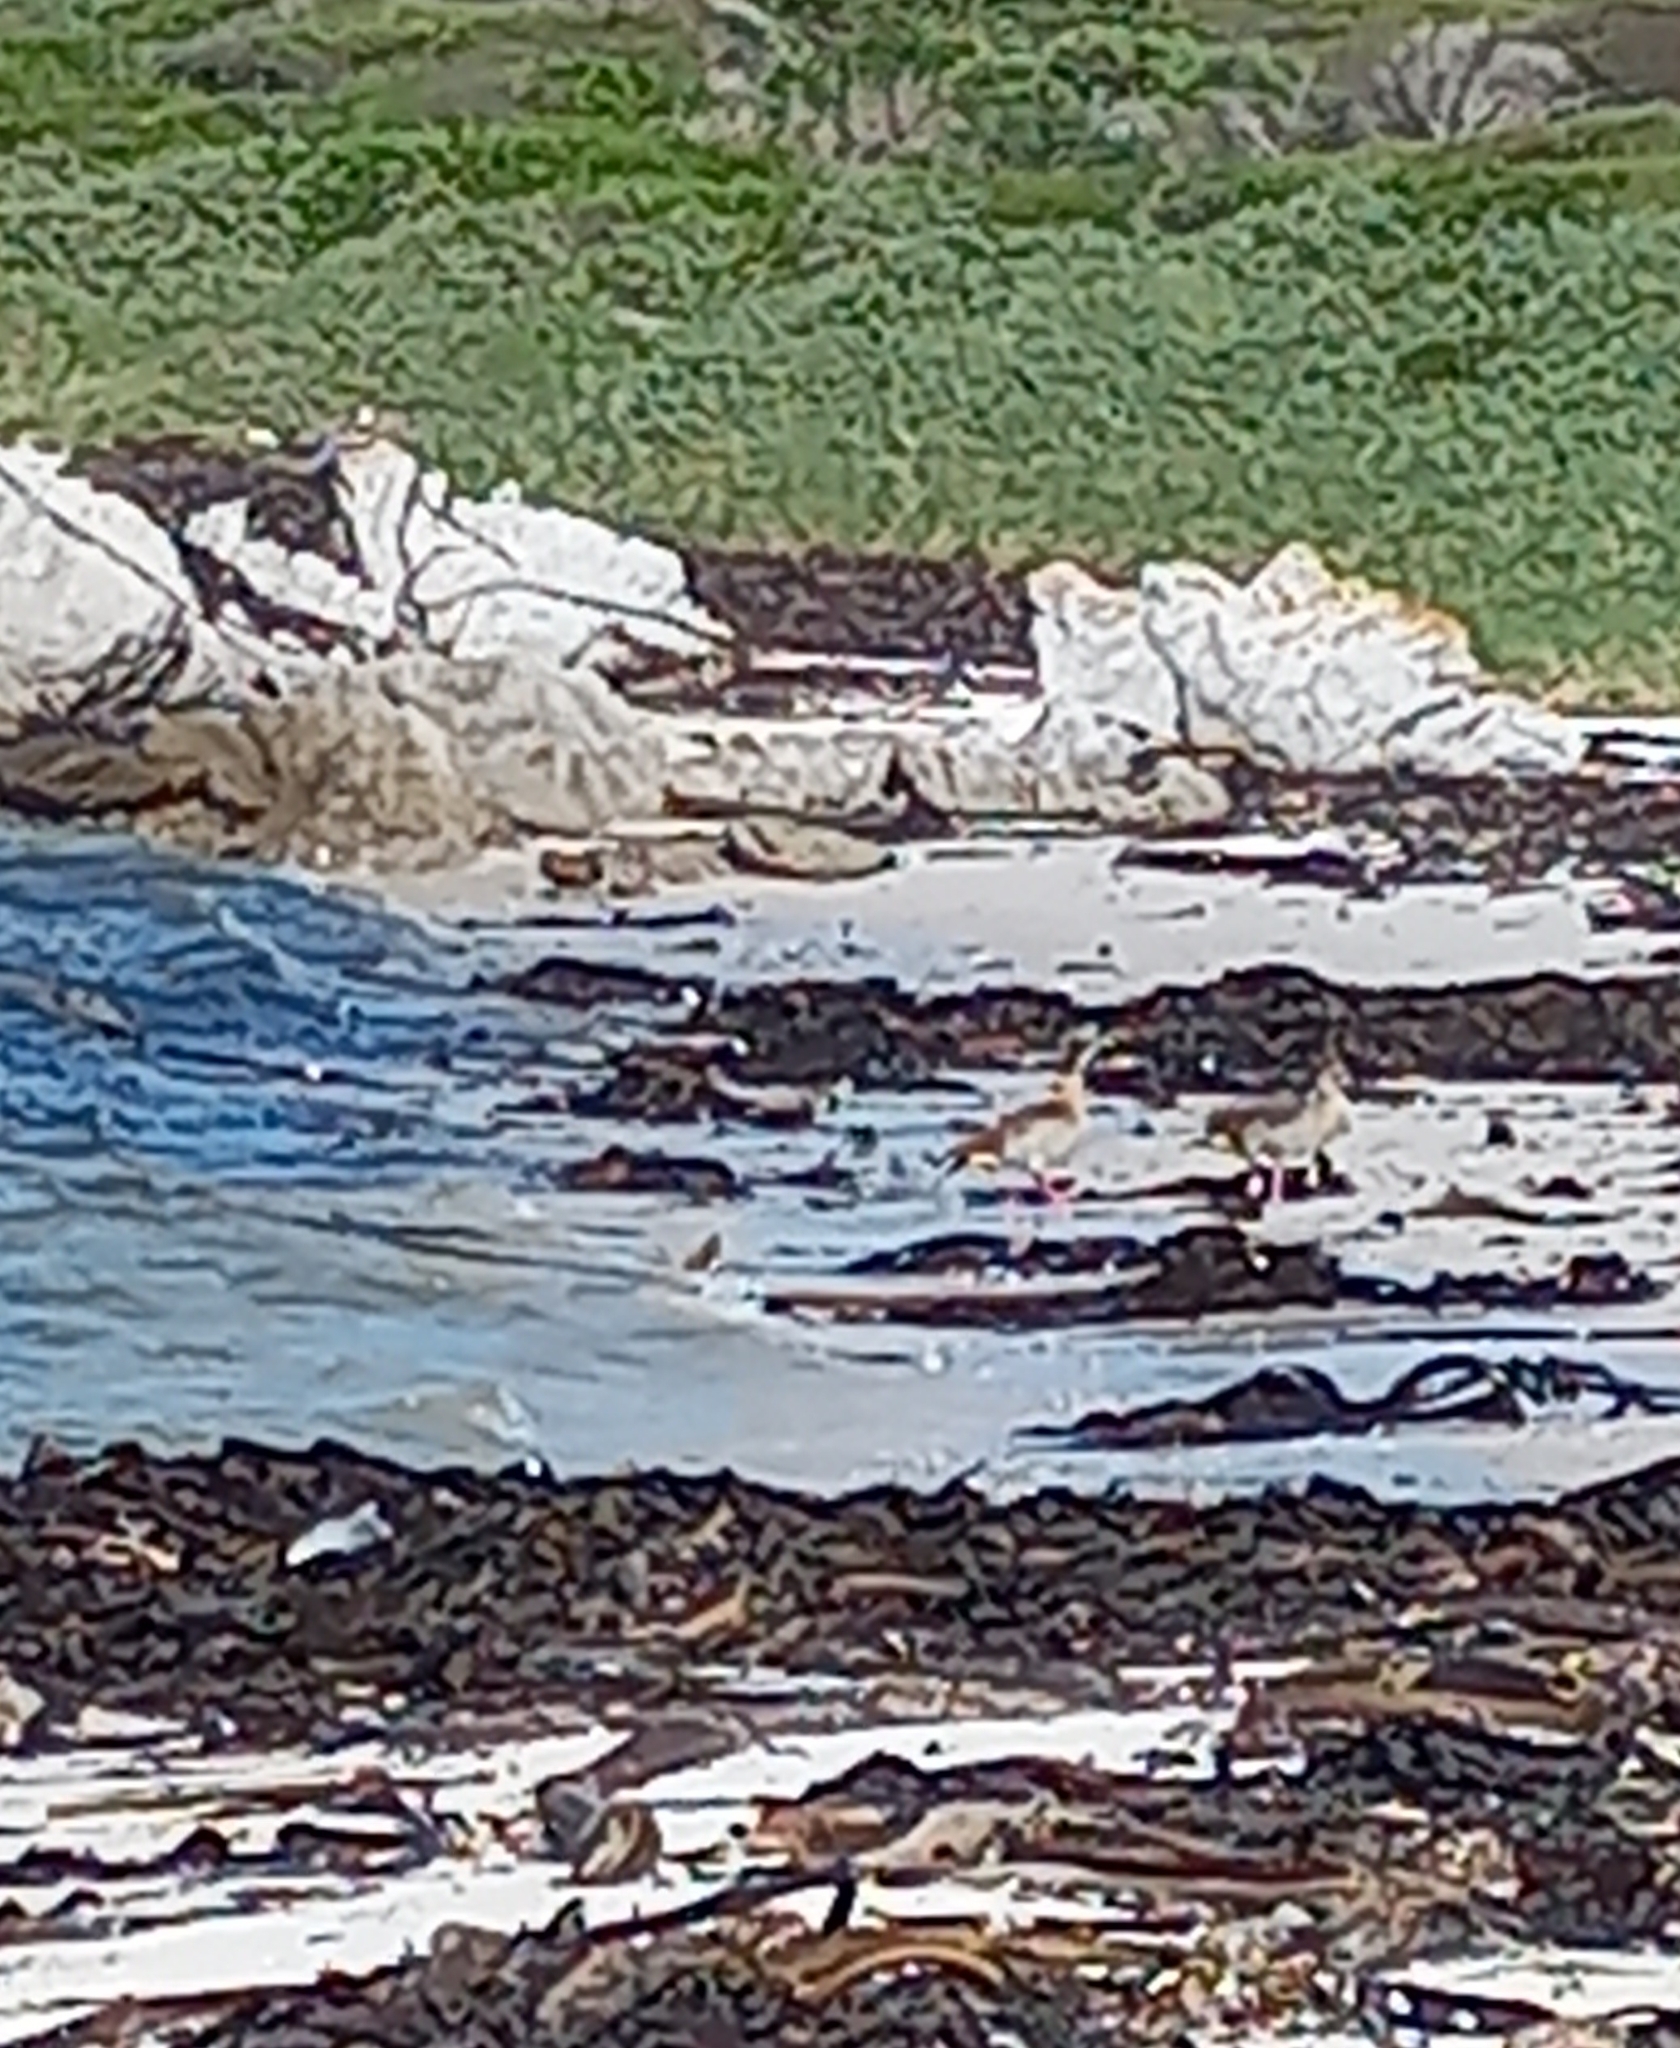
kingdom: Animalia
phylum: Chordata
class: Aves
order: Anseriformes
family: Anatidae
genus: Alopochen
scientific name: Alopochen aegyptiaca
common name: Egyptian goose
